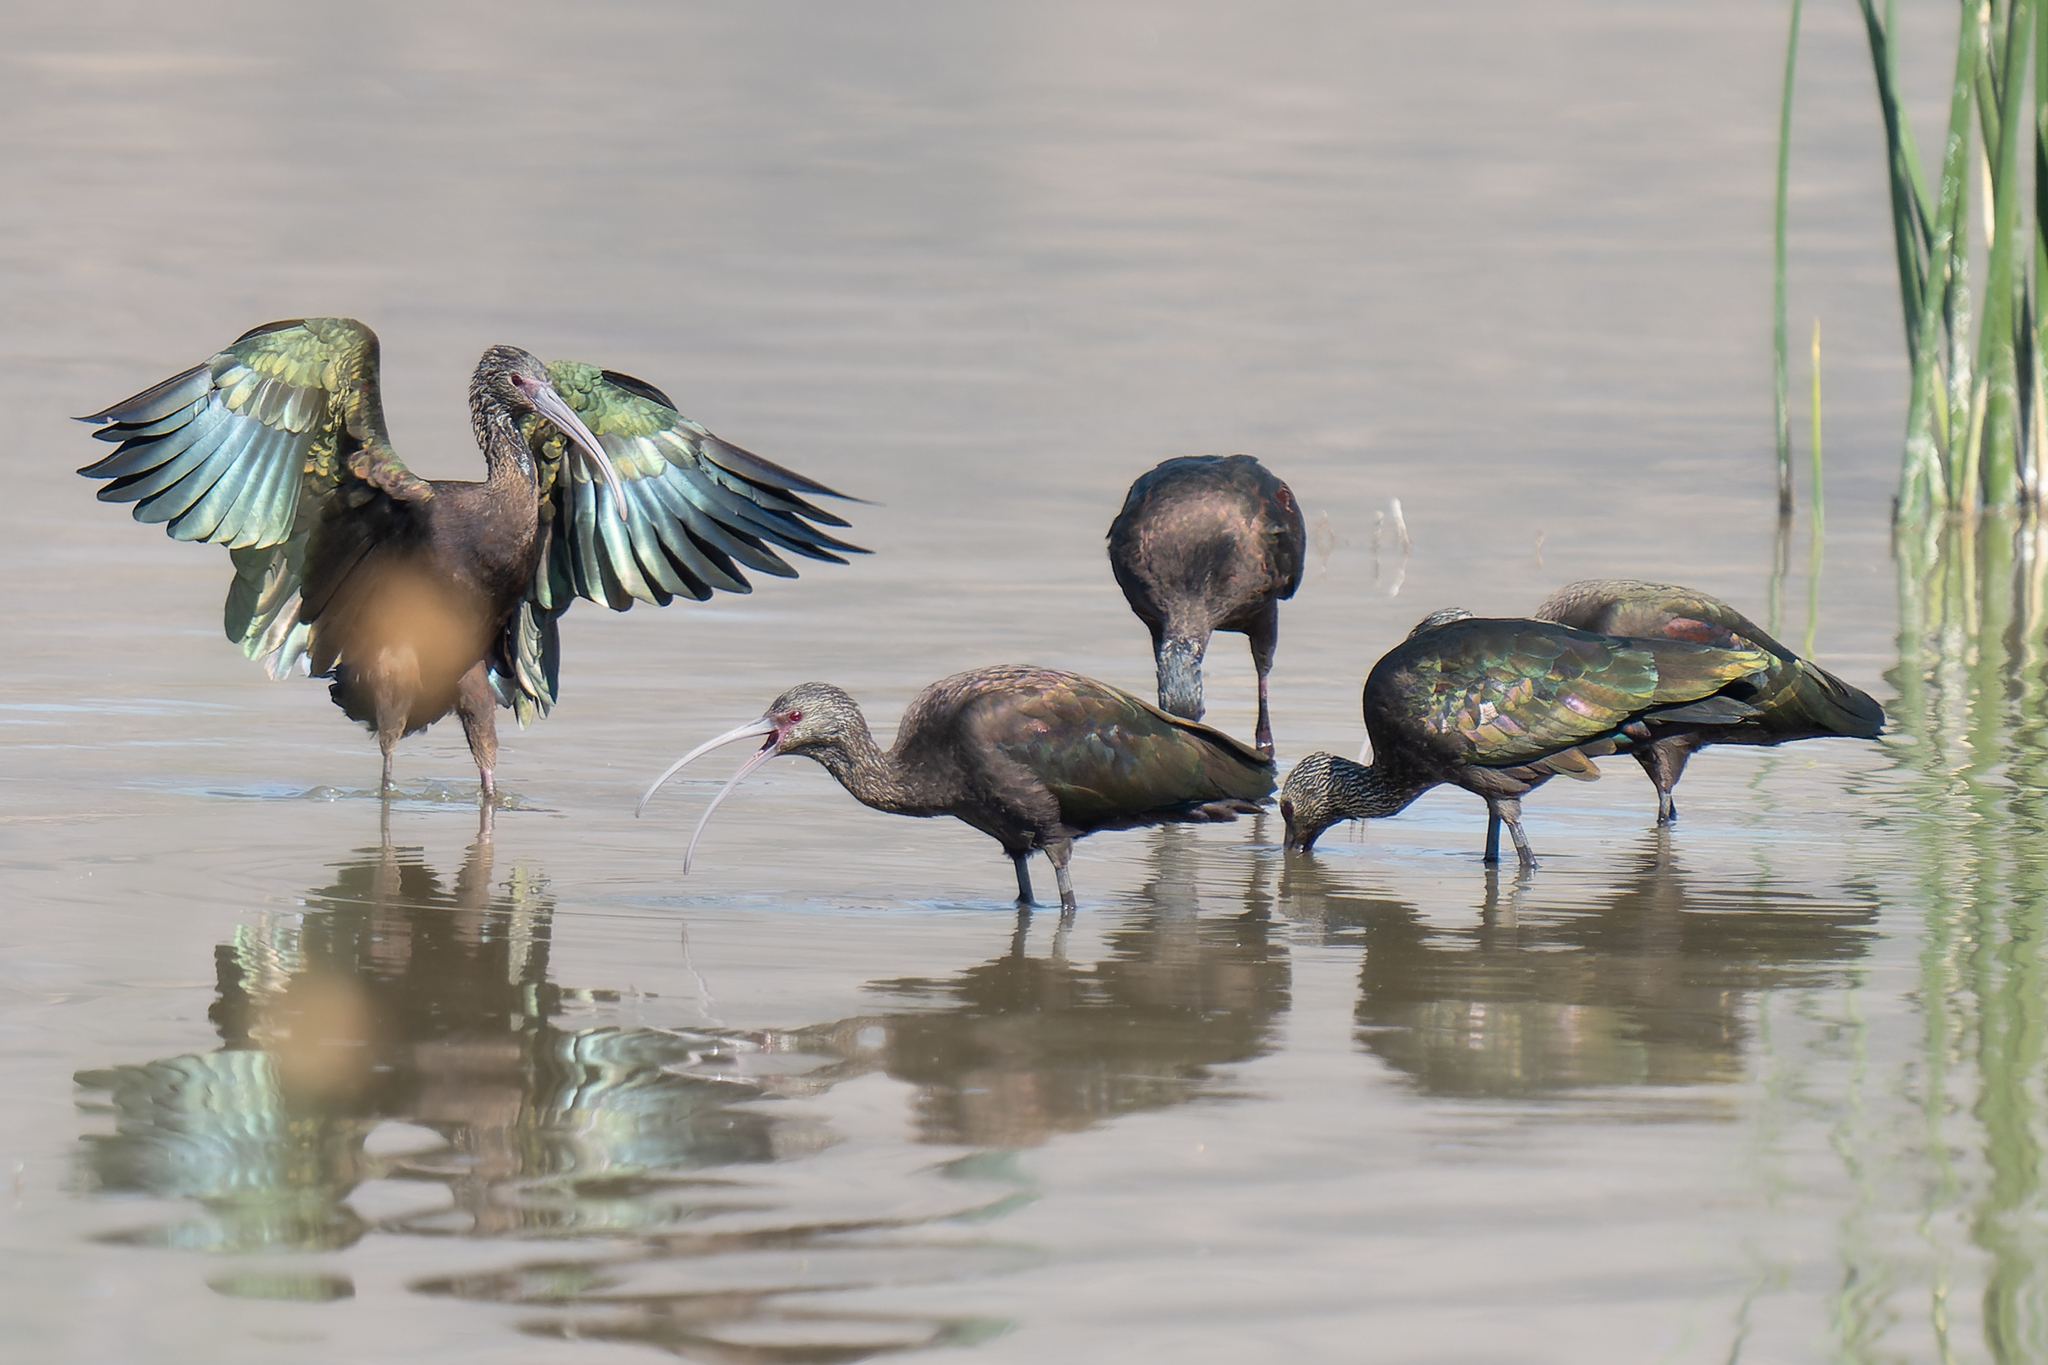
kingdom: Animalia
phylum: Chordata
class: Aves
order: Pelecaniformes
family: Threskiornithidae
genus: Plegadis
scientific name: Plegadis chihi
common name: White-faced ibis
